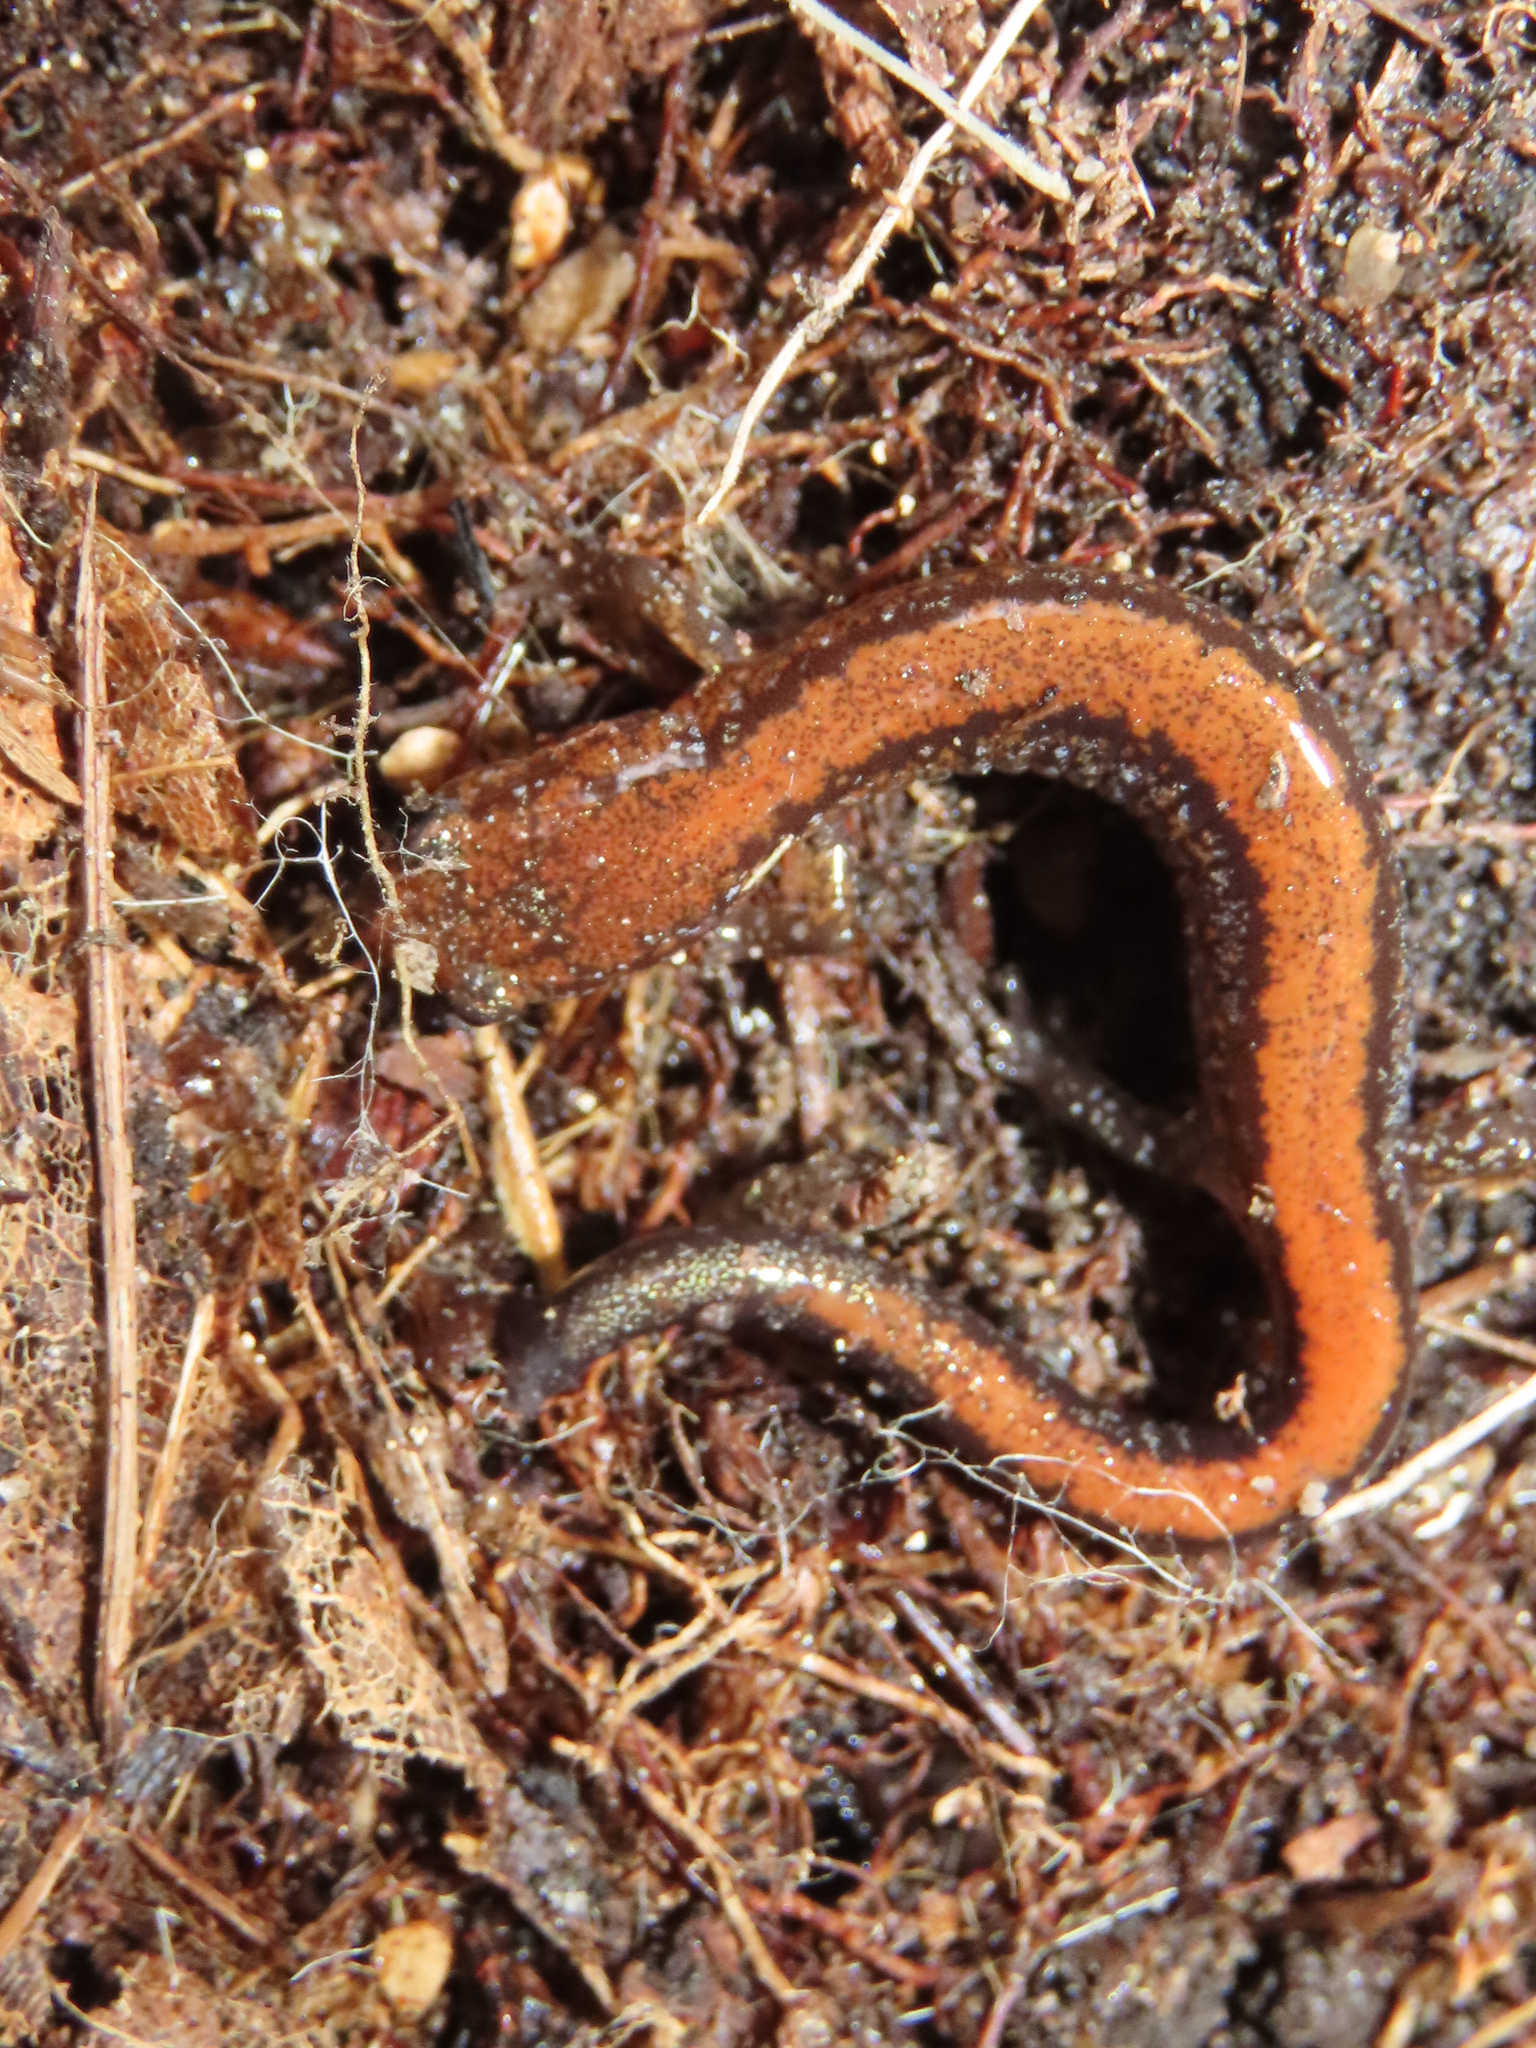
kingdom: Animalia
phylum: Chordata
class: Amphibia
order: Caudata
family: Plethodontidae
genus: Plethodon
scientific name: Plethodon cinereus
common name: Redback salamander
